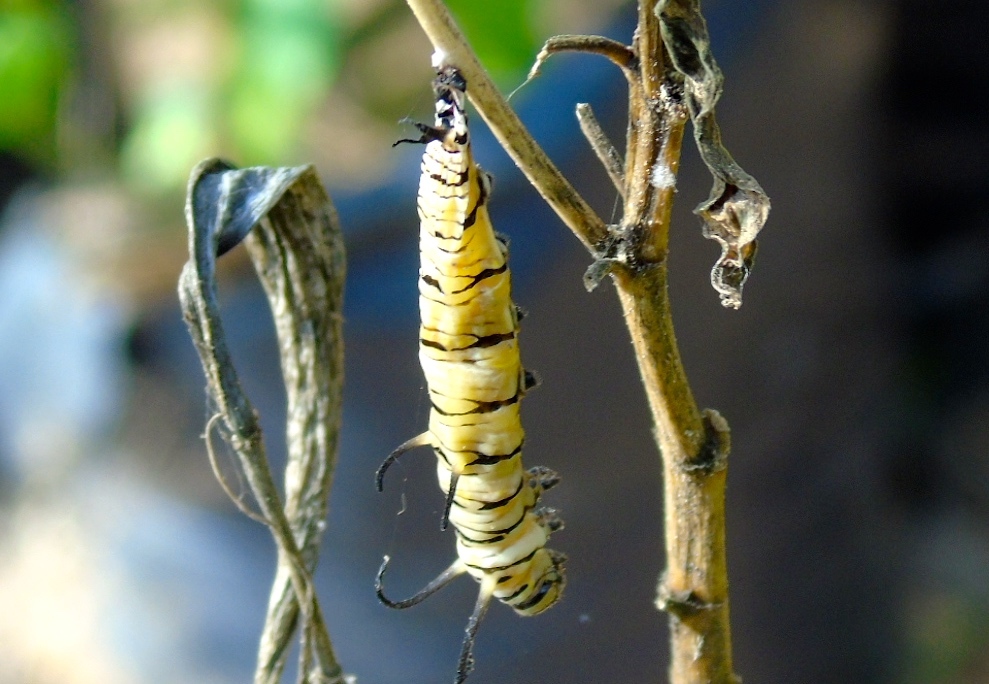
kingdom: Animalia
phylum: Arthropoda
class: Insecta
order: Lepidoptera
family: Nymphalidae
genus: Danaus
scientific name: Danaus
